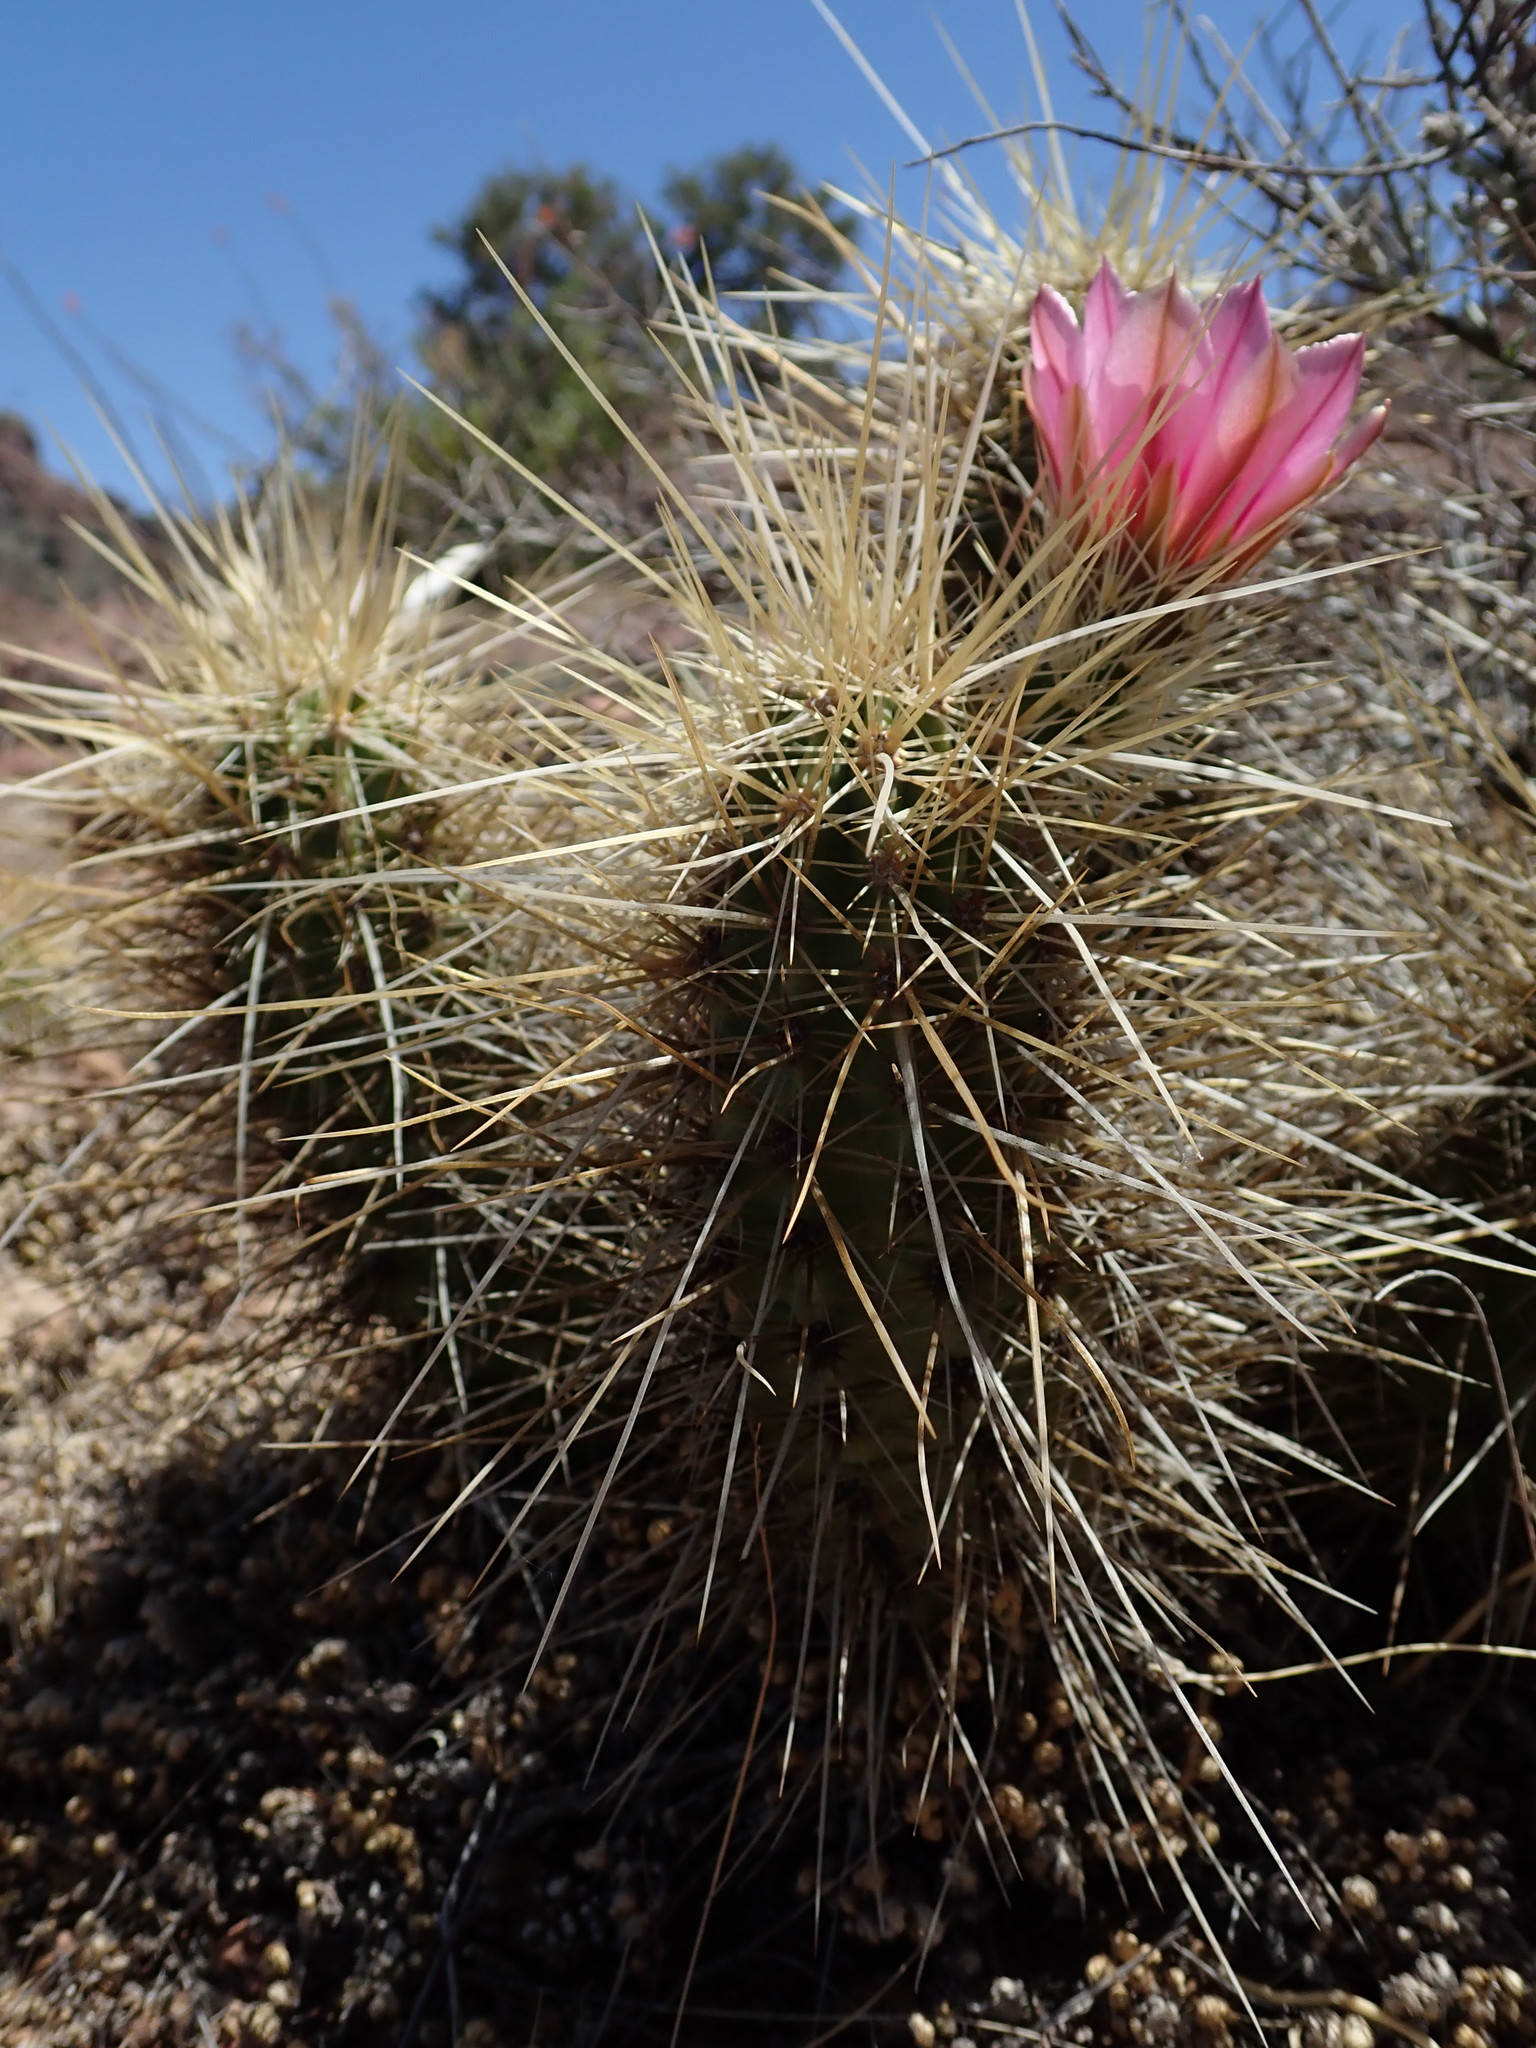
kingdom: Plantae
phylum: Tracheophyta
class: Magnoliopsida
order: Caryophyllales
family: Cactaceae
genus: Echinocereus
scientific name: Echinocereus nicholii
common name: Nichol's hedgehog cactus
